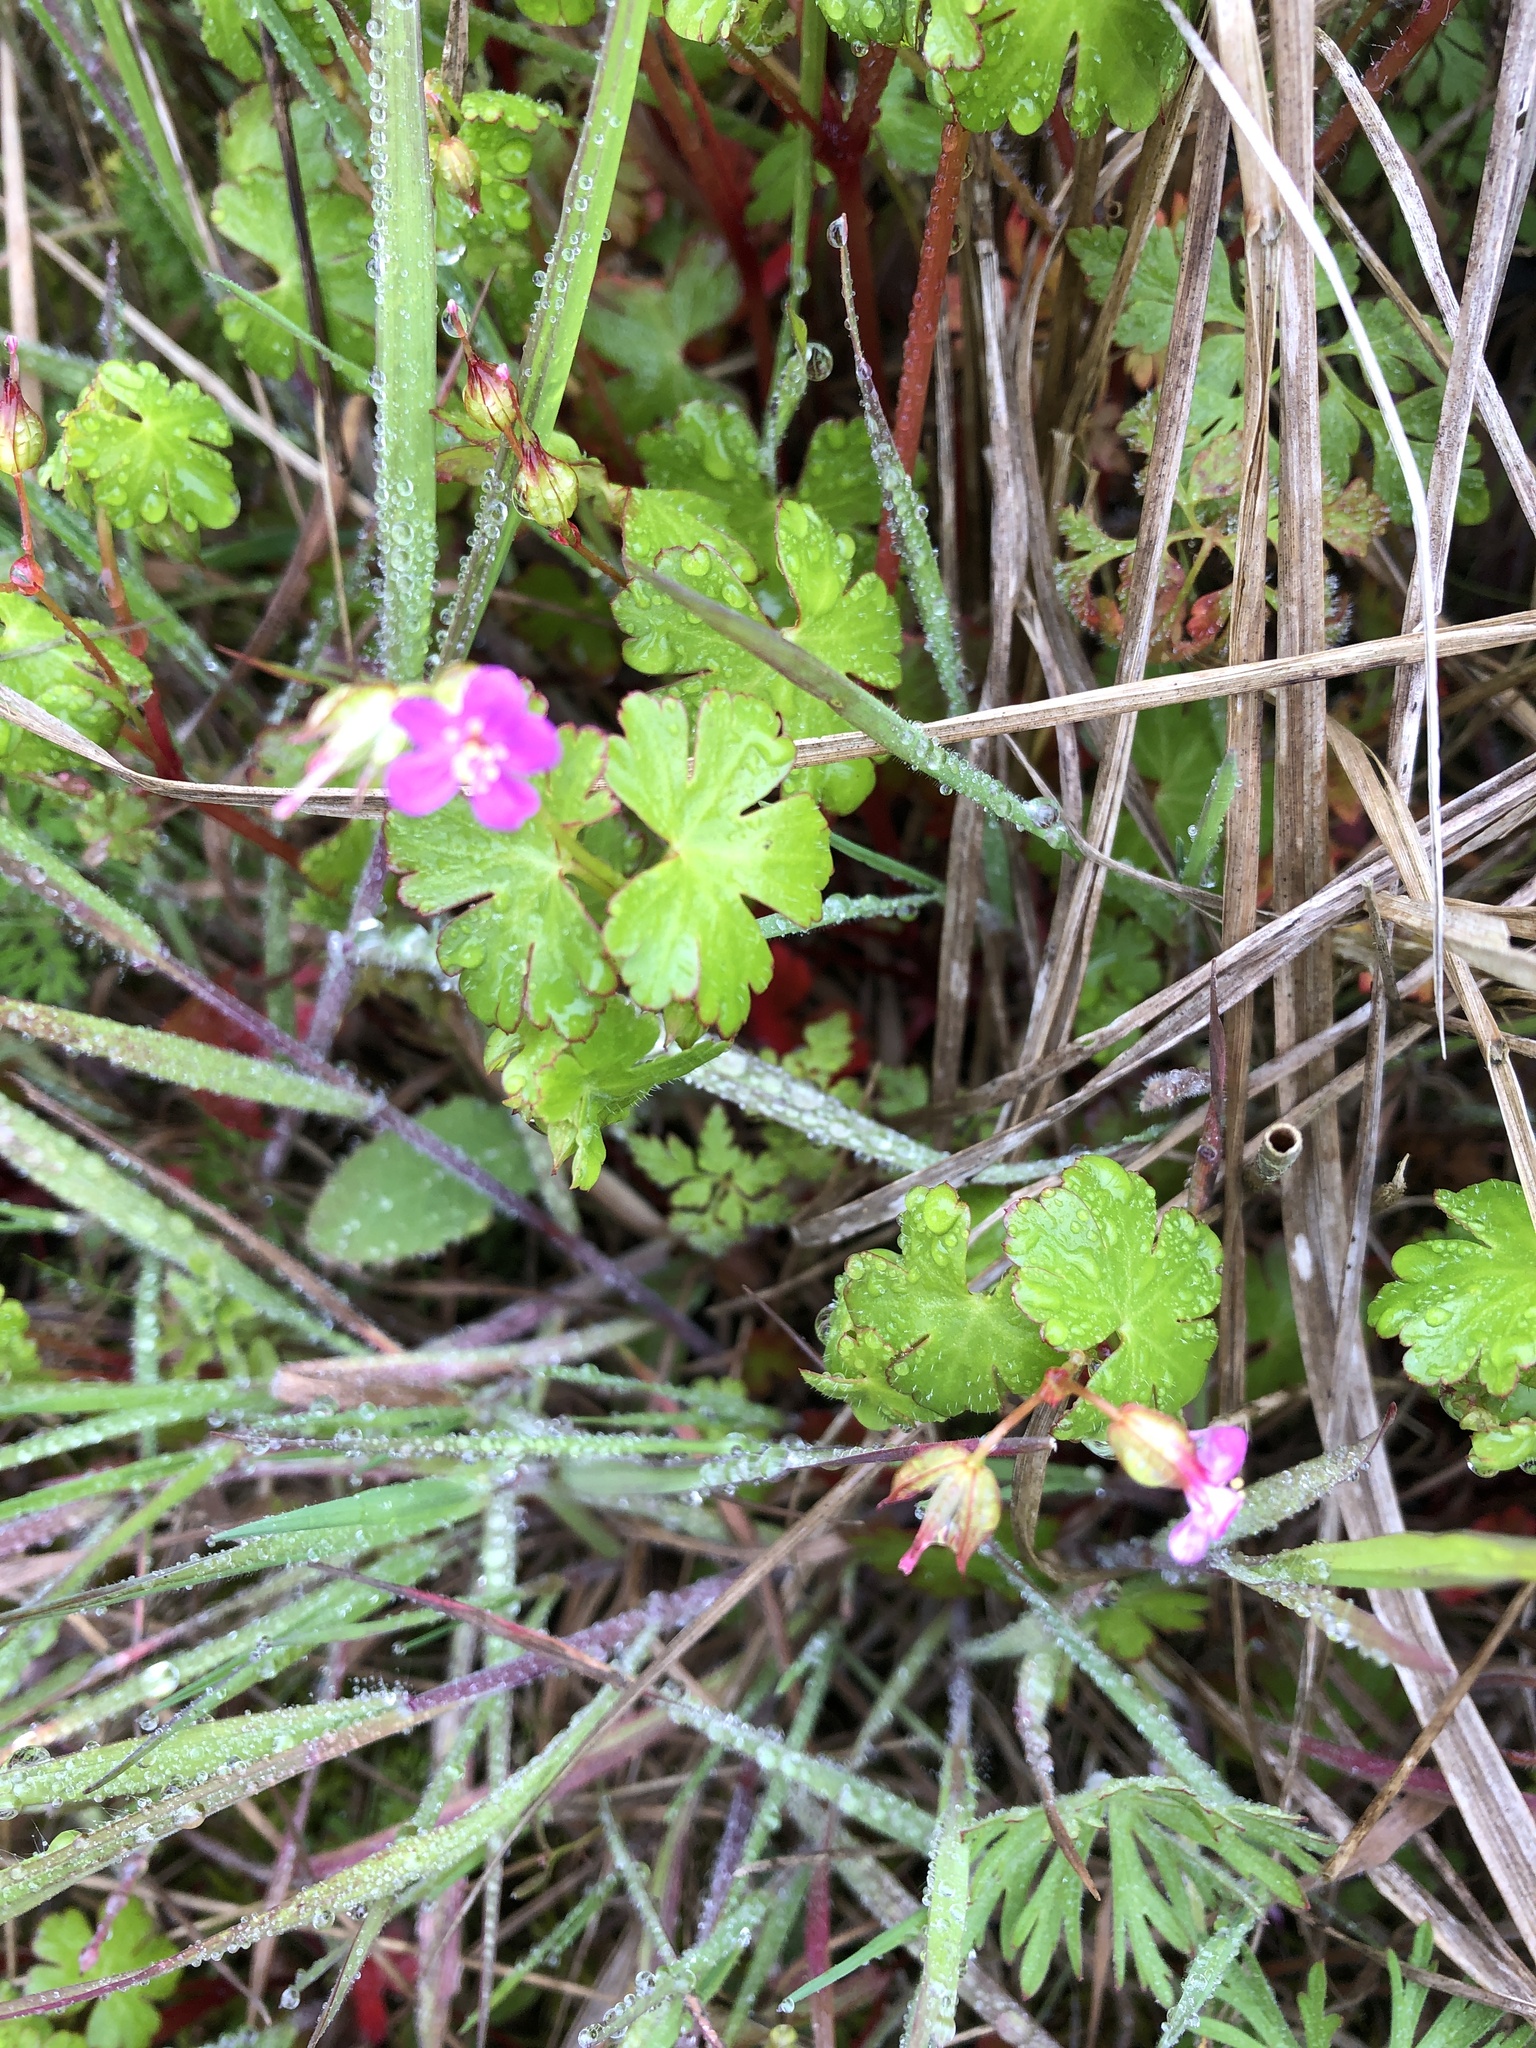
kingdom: Plantae
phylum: Tracheophyta
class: Magnoliopsida
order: Geraniales
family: Geraniaceae
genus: Geranium
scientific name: Geranium lucidum
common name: Shining crane's-bill
